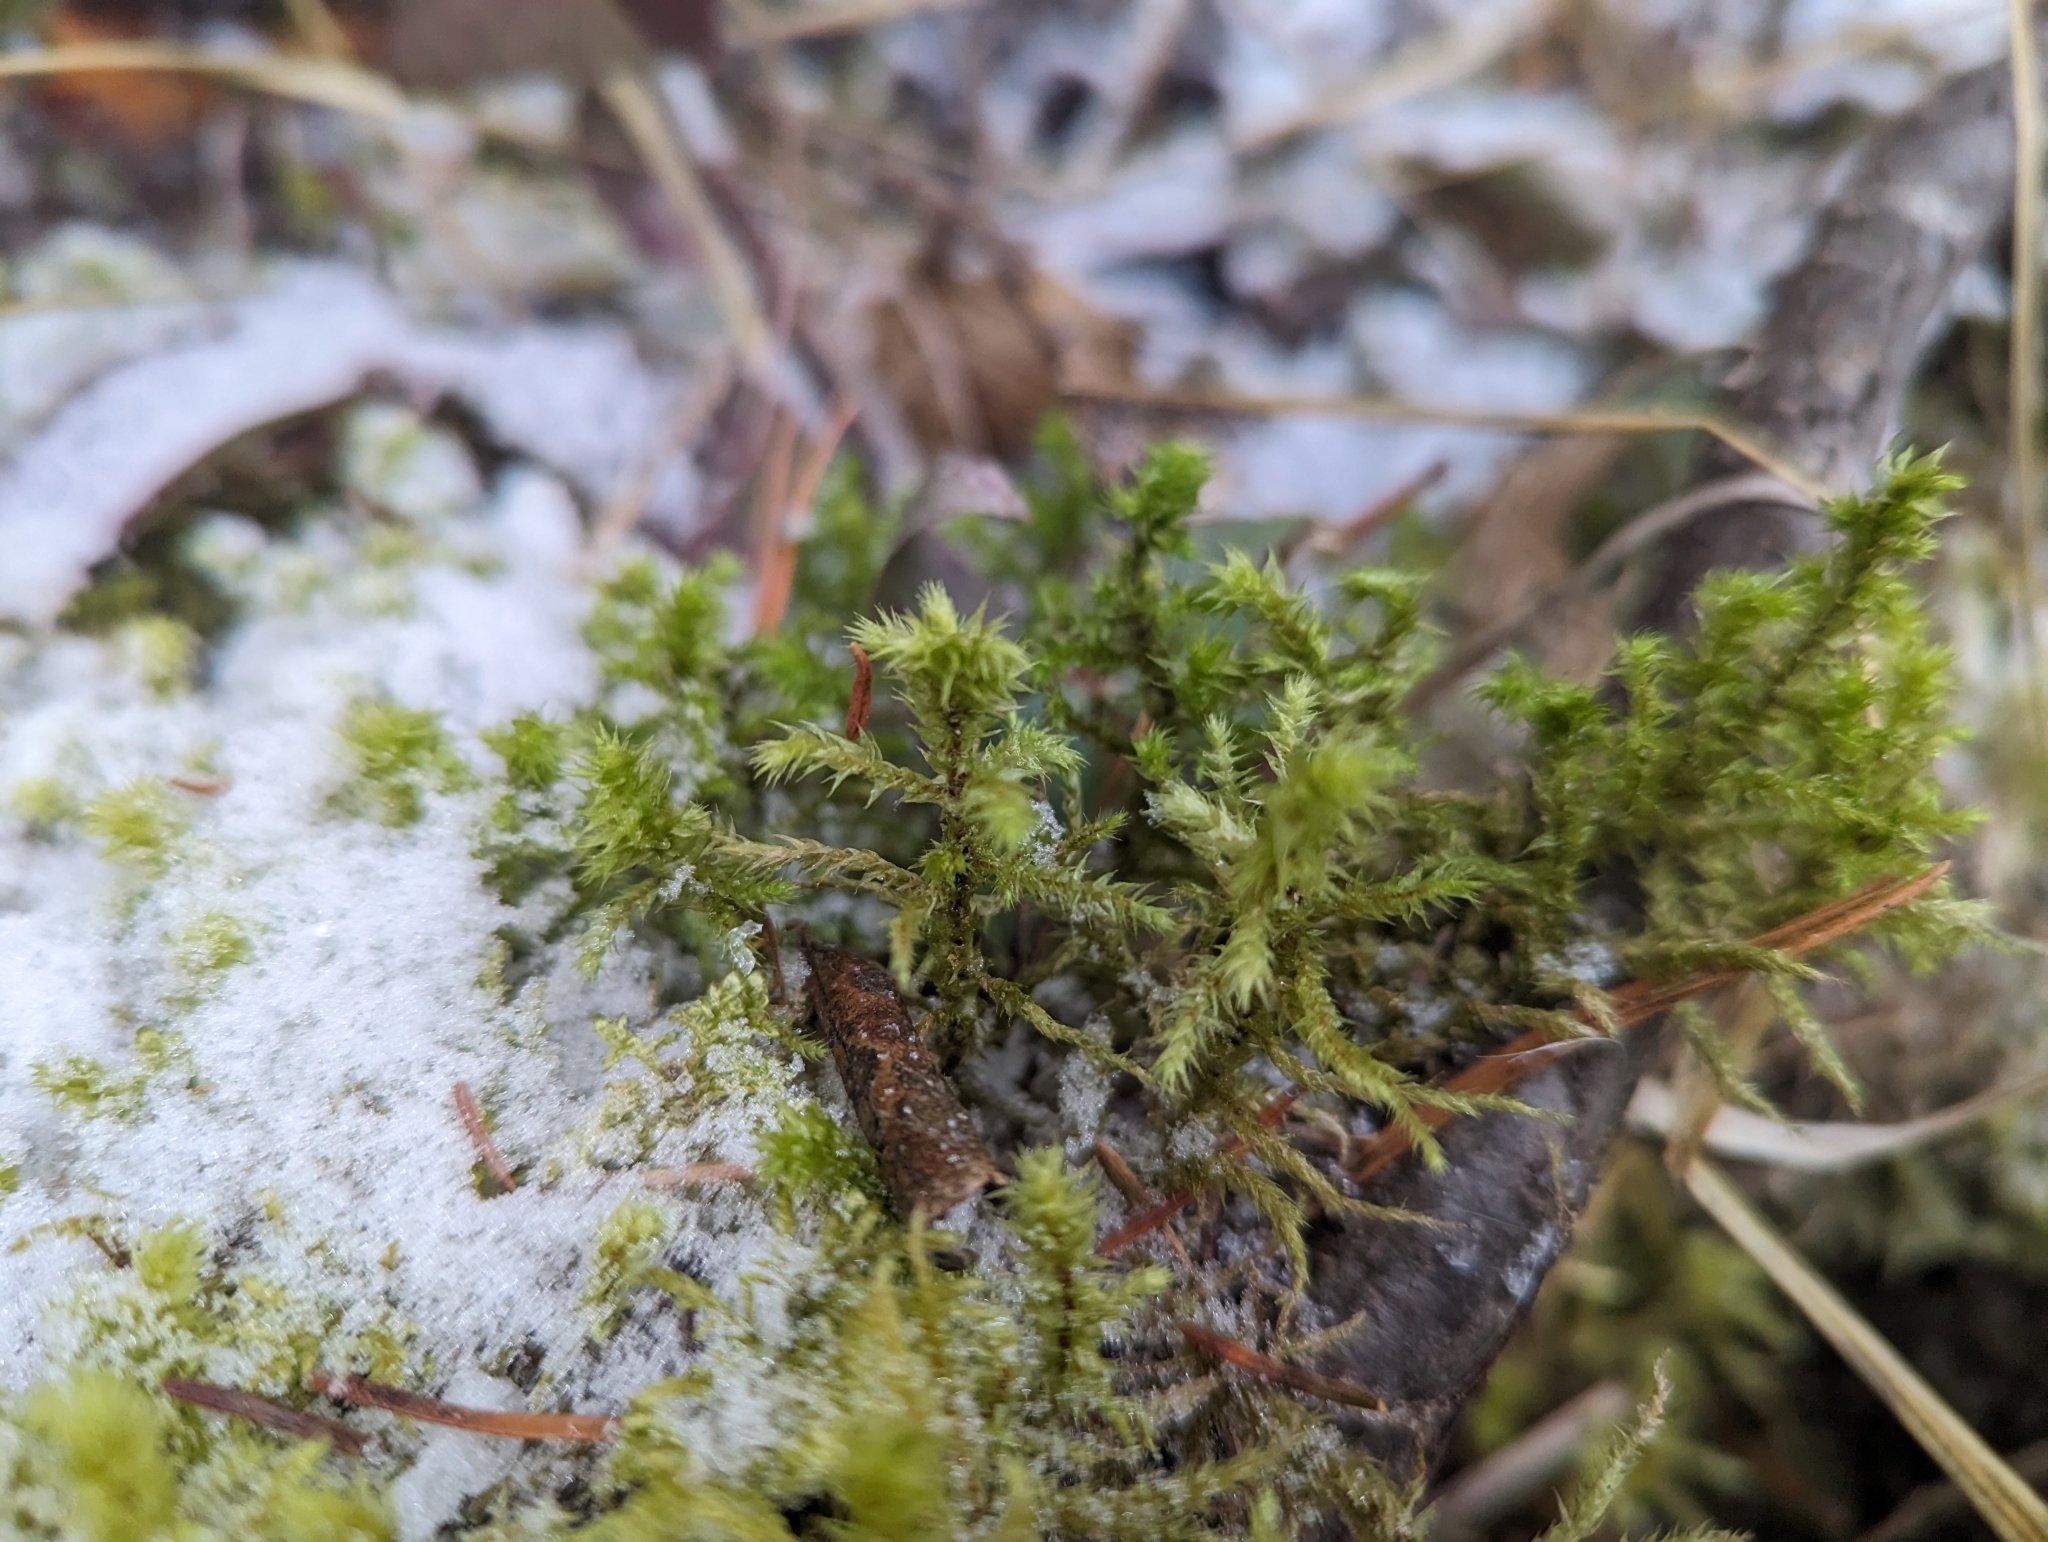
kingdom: Plantae
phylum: Bryophyta
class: Bryopsida
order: Hypnales
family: Hylocomiaceae
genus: Hylocomiadelphus
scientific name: Hylocomiadelphus triquetrus
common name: Rough goose neck moss
